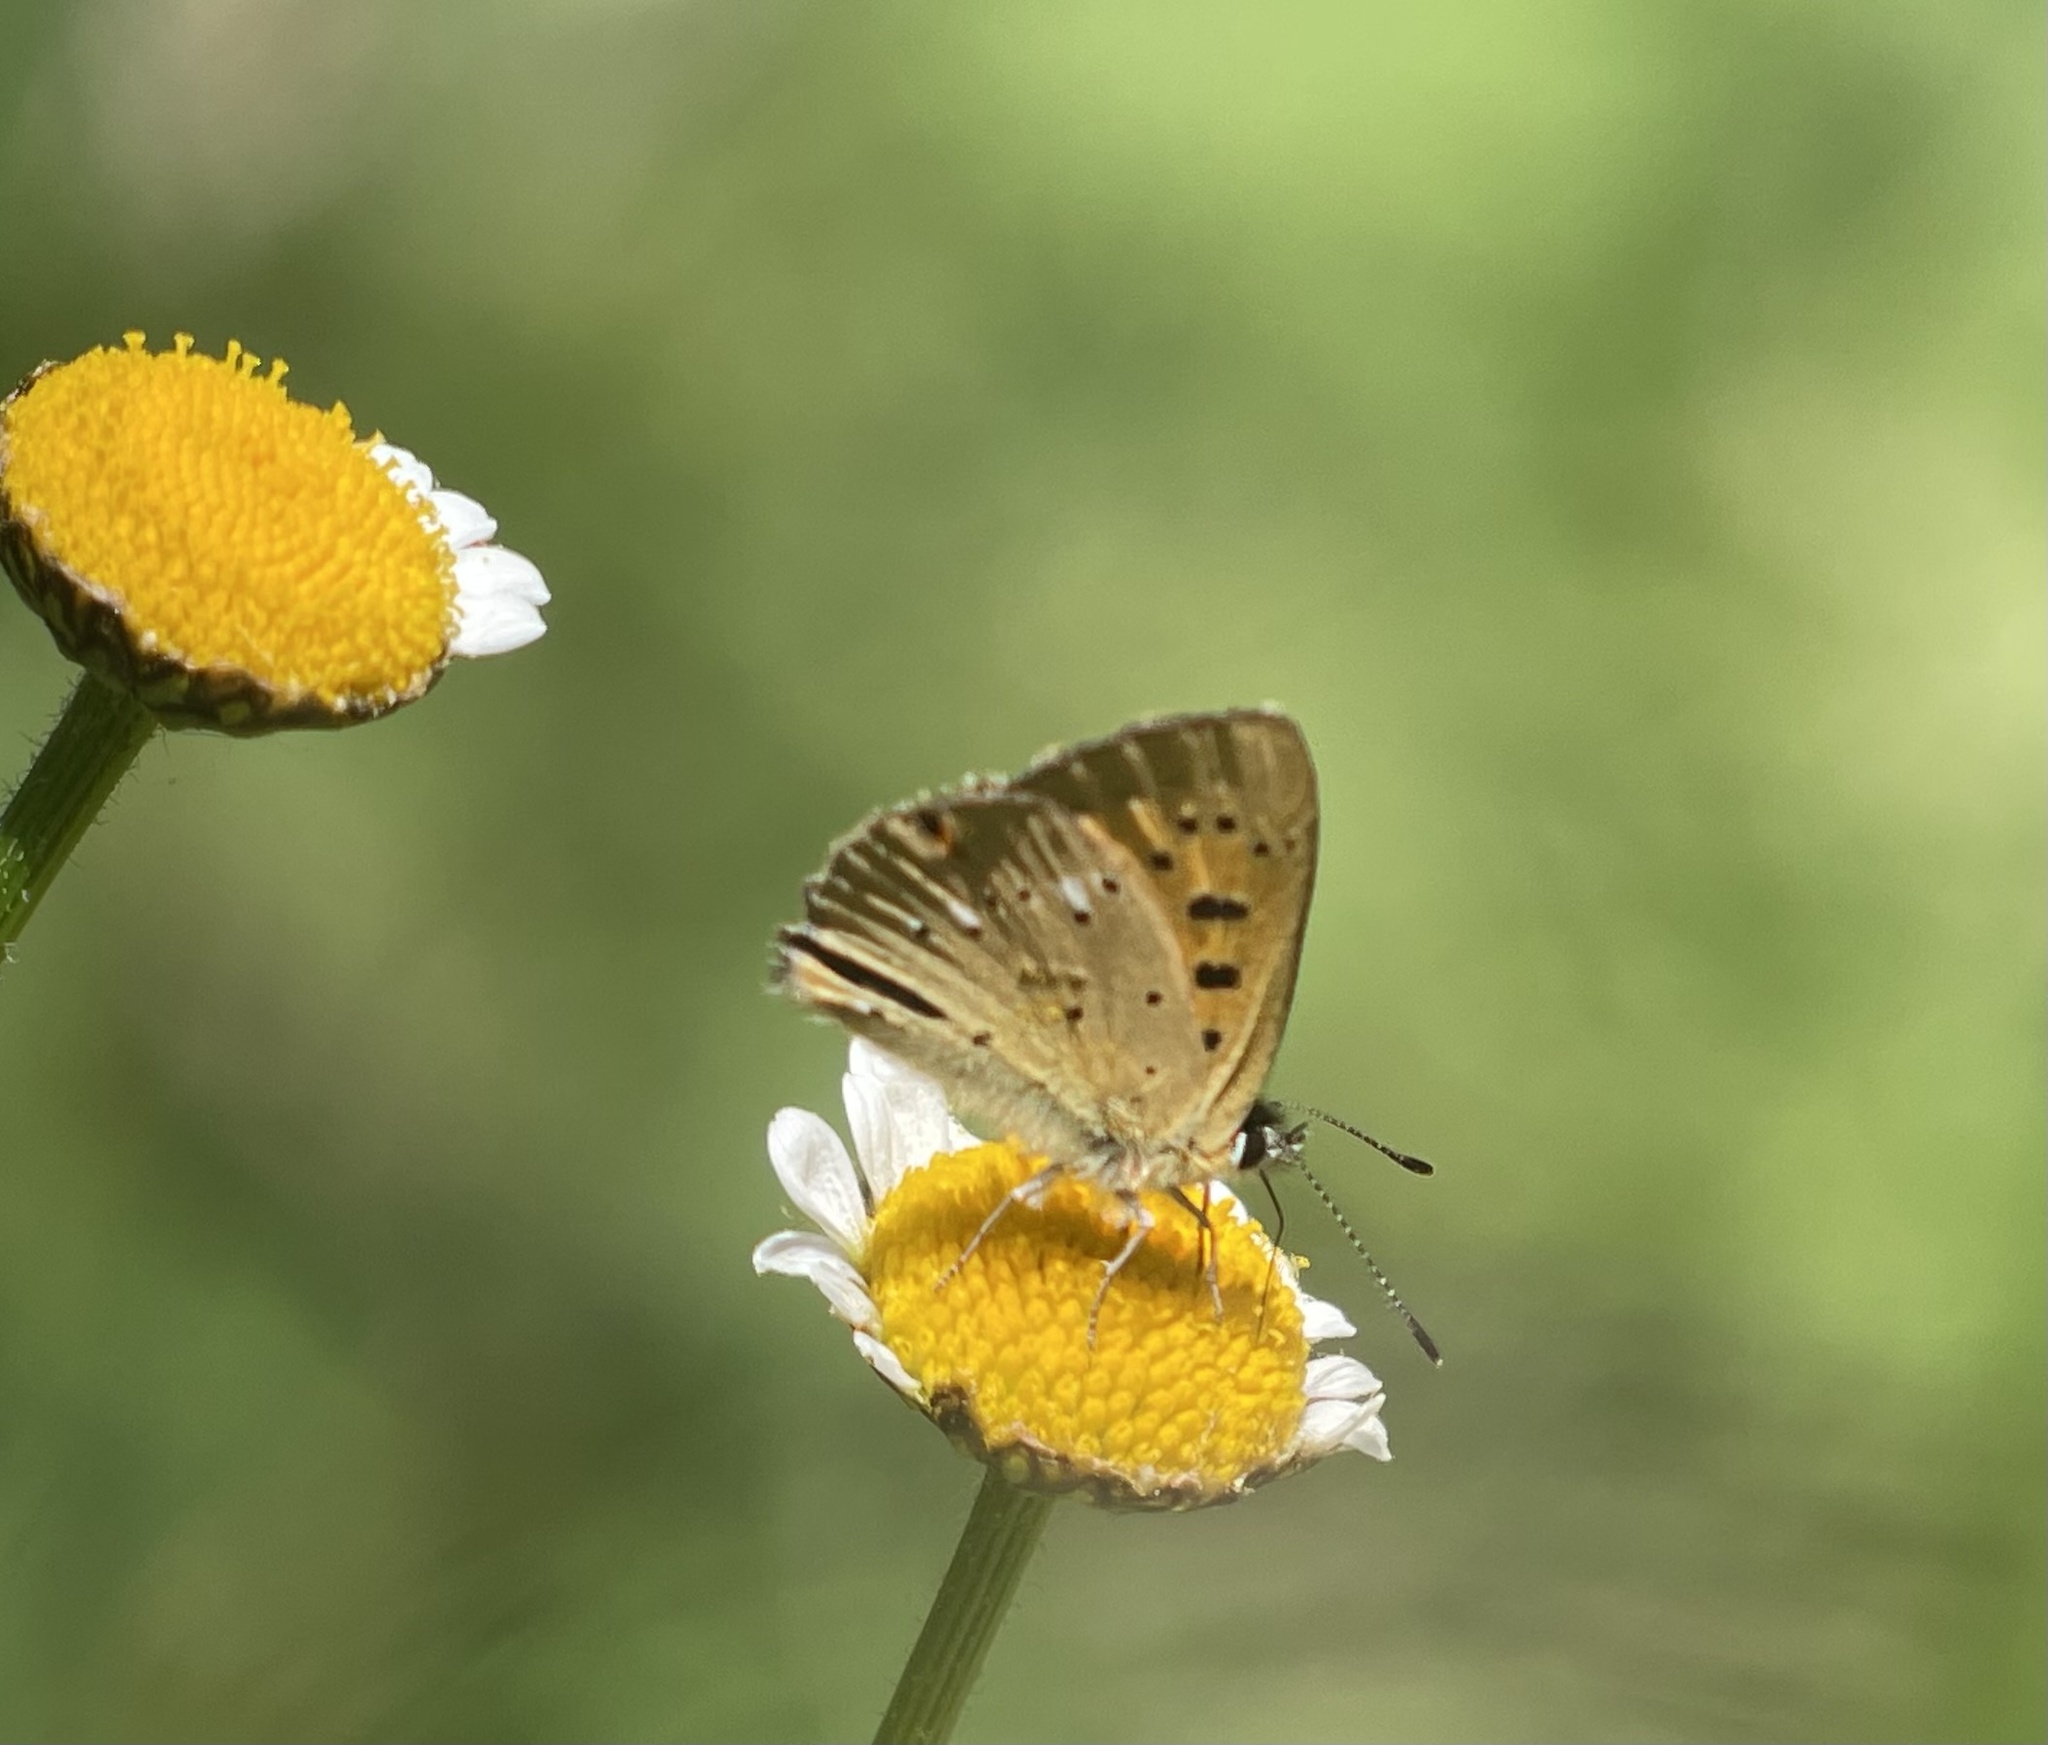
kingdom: Animalia
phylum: Arthropoda
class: Insecta
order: Lepidoptera
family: Lycaenidae
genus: Lycaena
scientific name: Lycaena virgaureae
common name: Scarce copper
